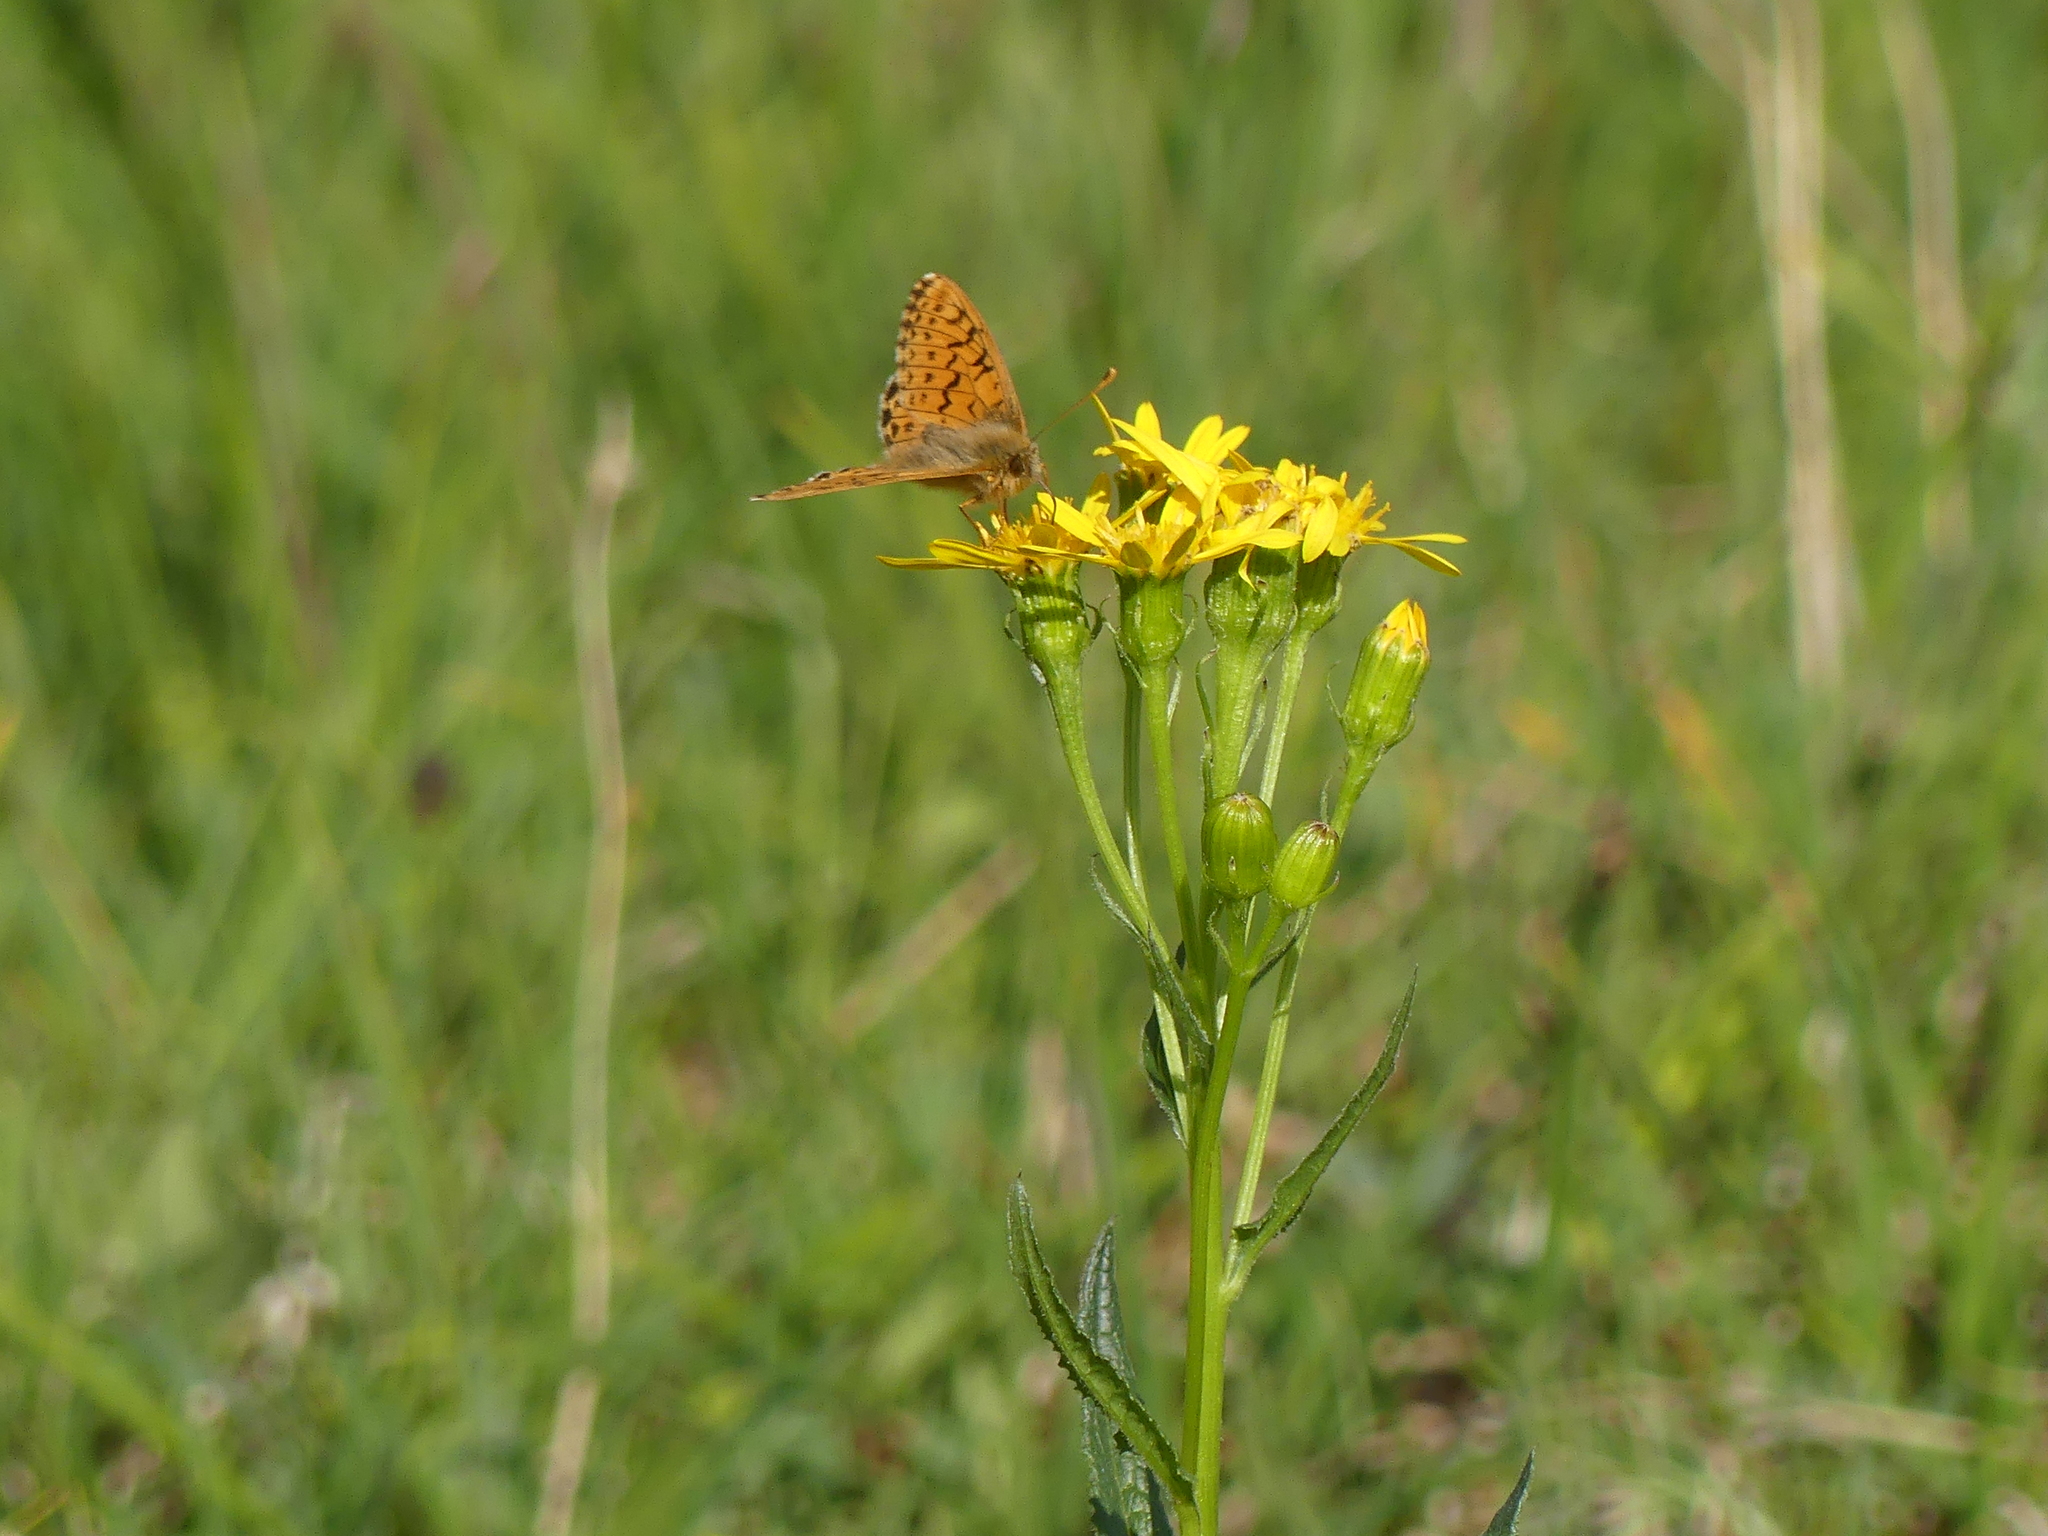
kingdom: Animalia
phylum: Arthropoda
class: Insecta
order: Lepidoptera
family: Nymphalidae
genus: Boloria
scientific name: Boloria alaskensis
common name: Alaskan fritillary
